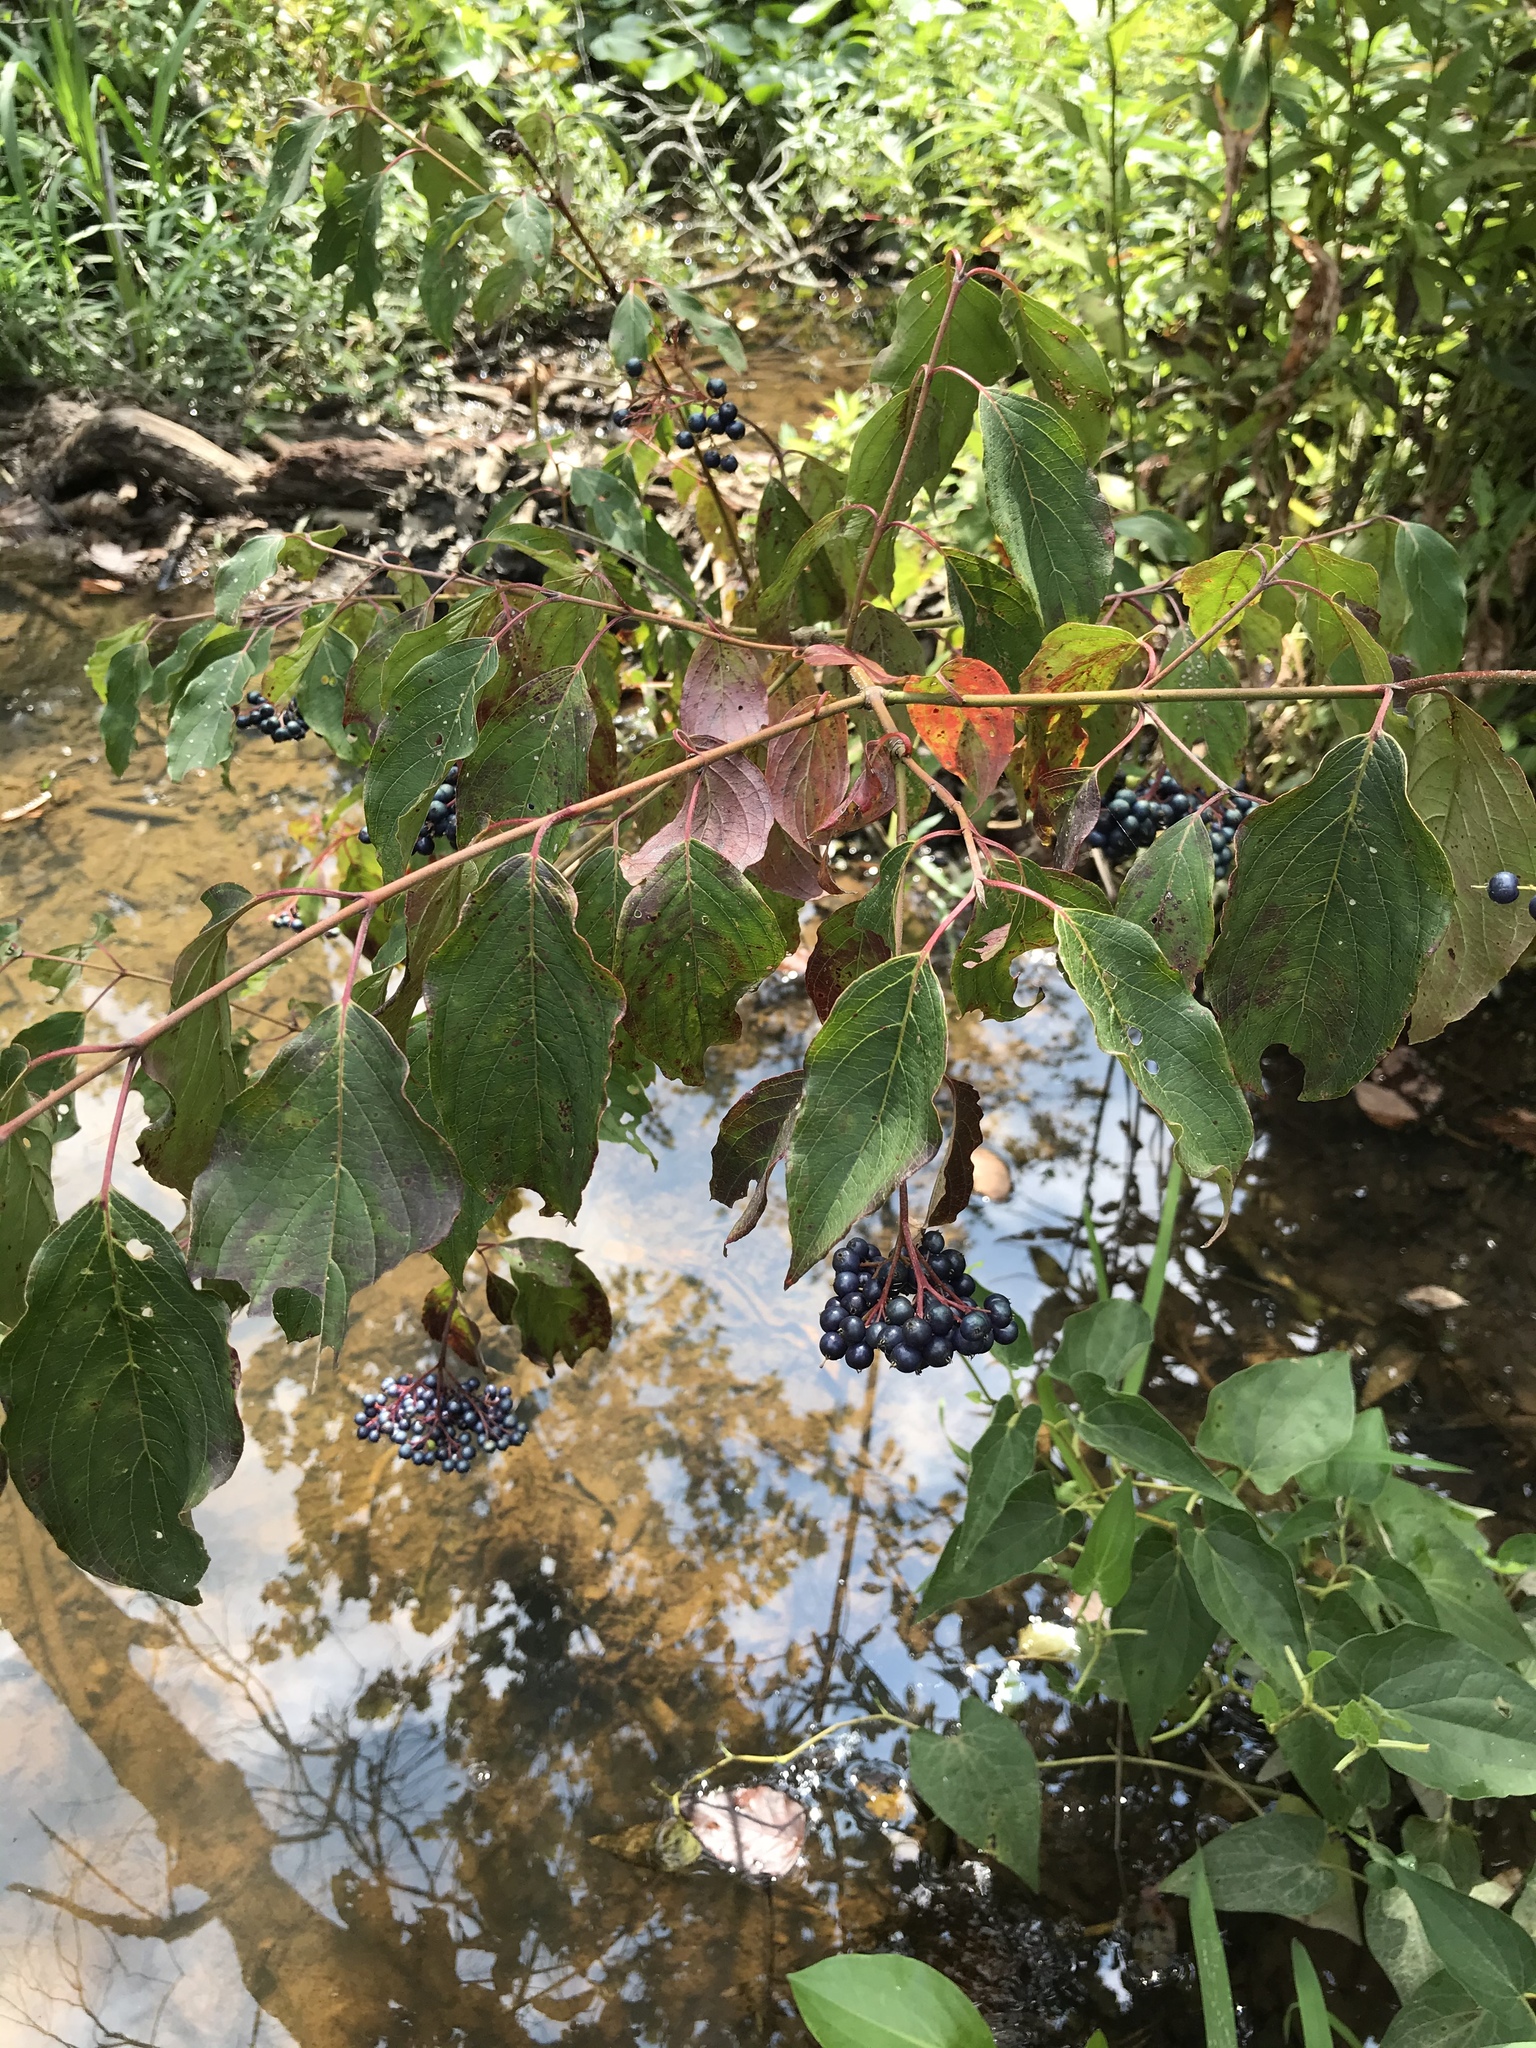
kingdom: Plantae
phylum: Tracheophyta
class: Magnoliopsida
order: Cornales
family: Cornaceae
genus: Cornus
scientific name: Cornus amomum
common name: Silky dogwood
